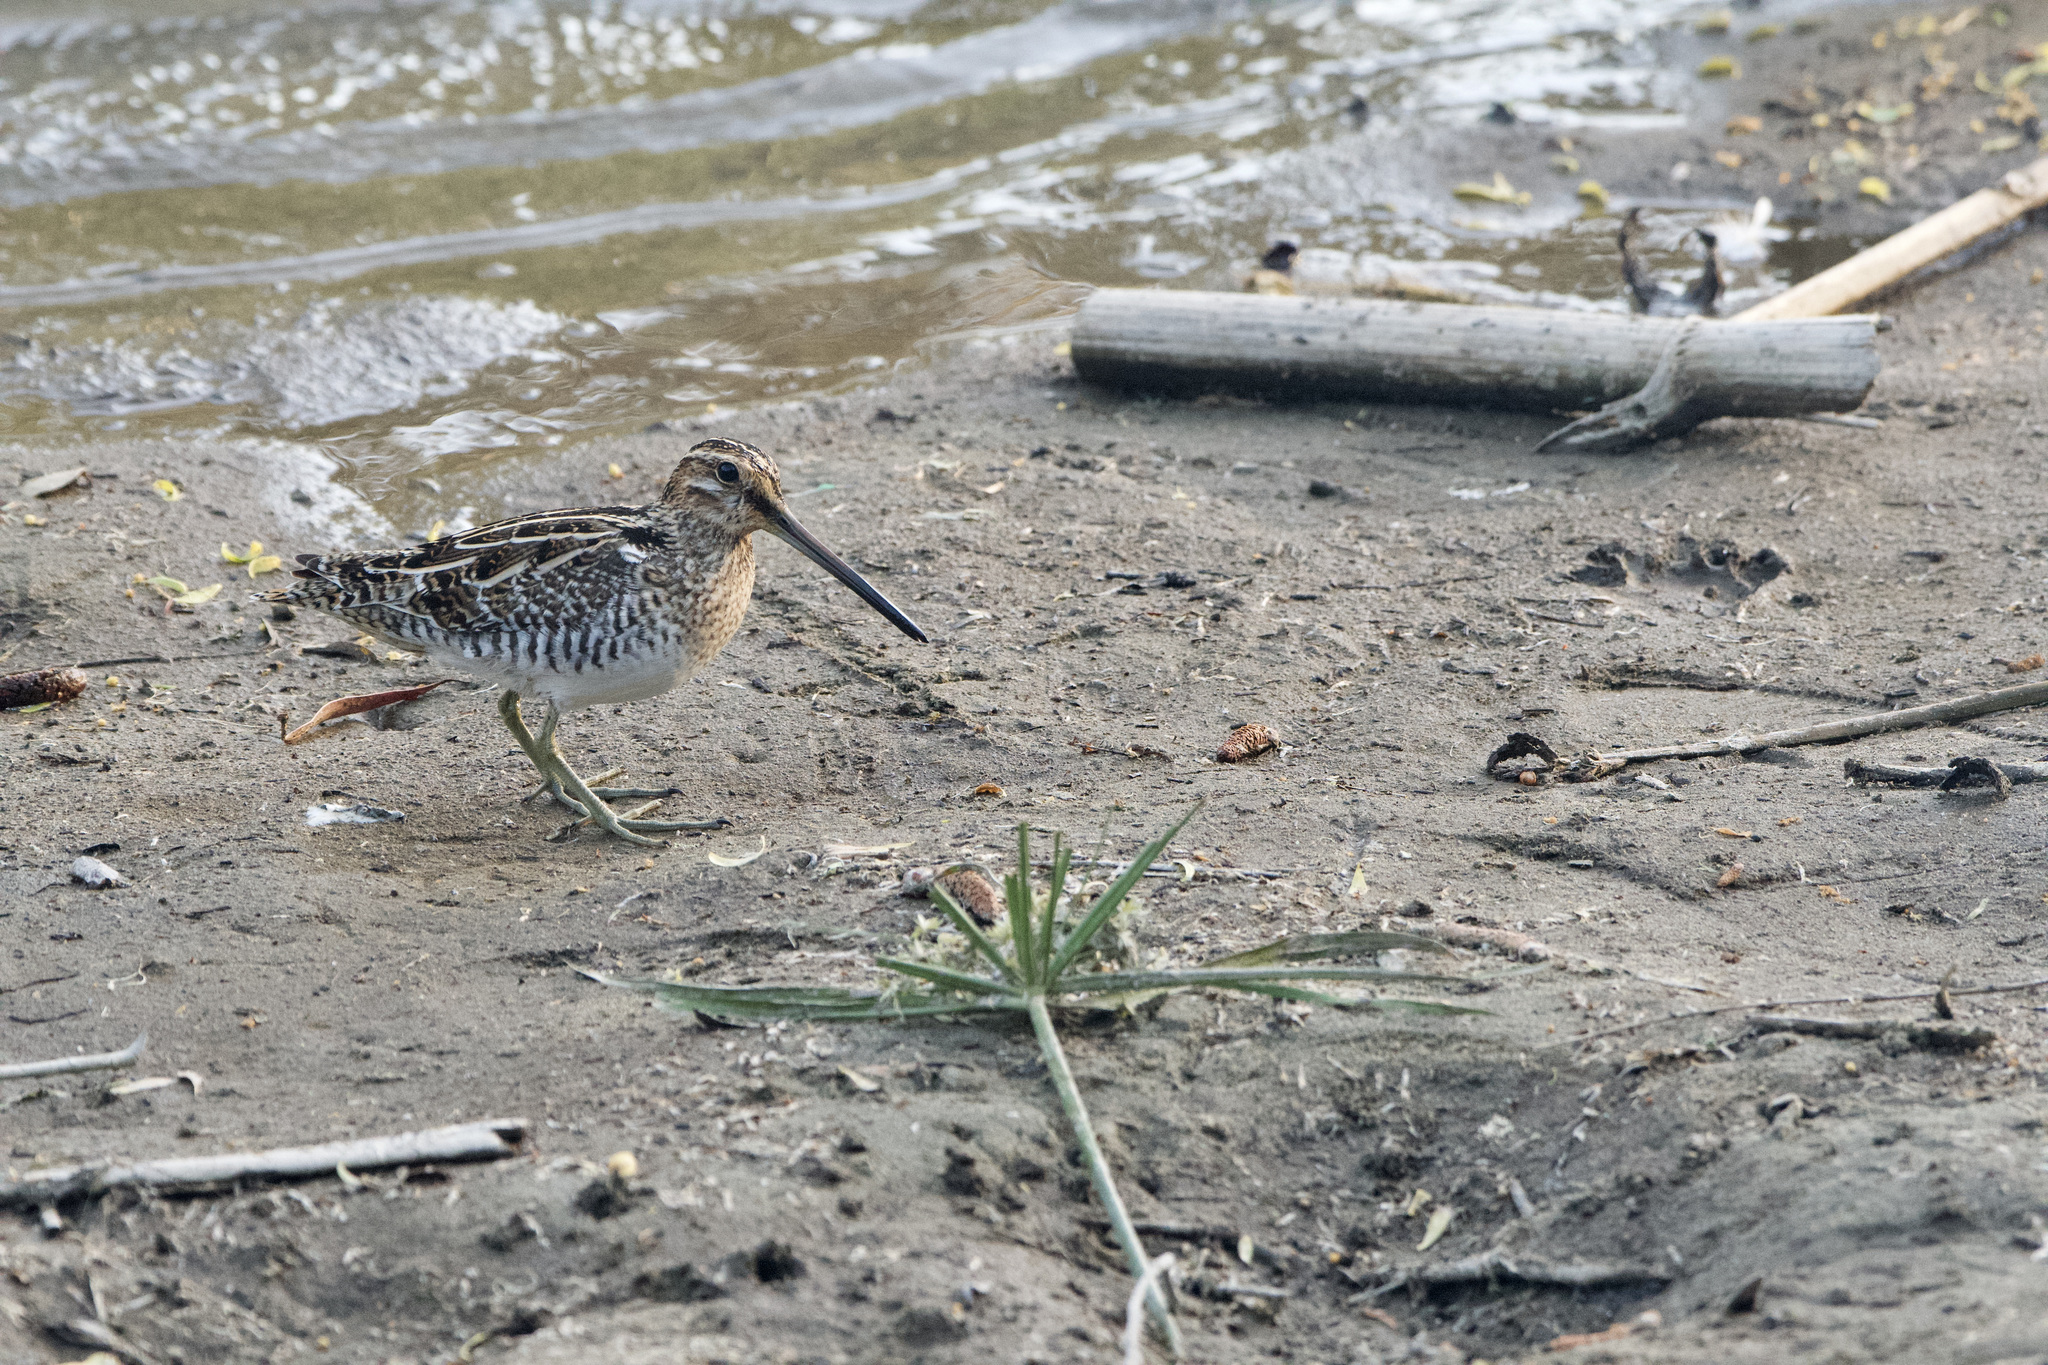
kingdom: Animalia
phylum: Chordata
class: Aves
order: Charadriiformes
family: Scolopacidae
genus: Gallinago
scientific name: Gallinago delicata
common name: Wilson's snipe
